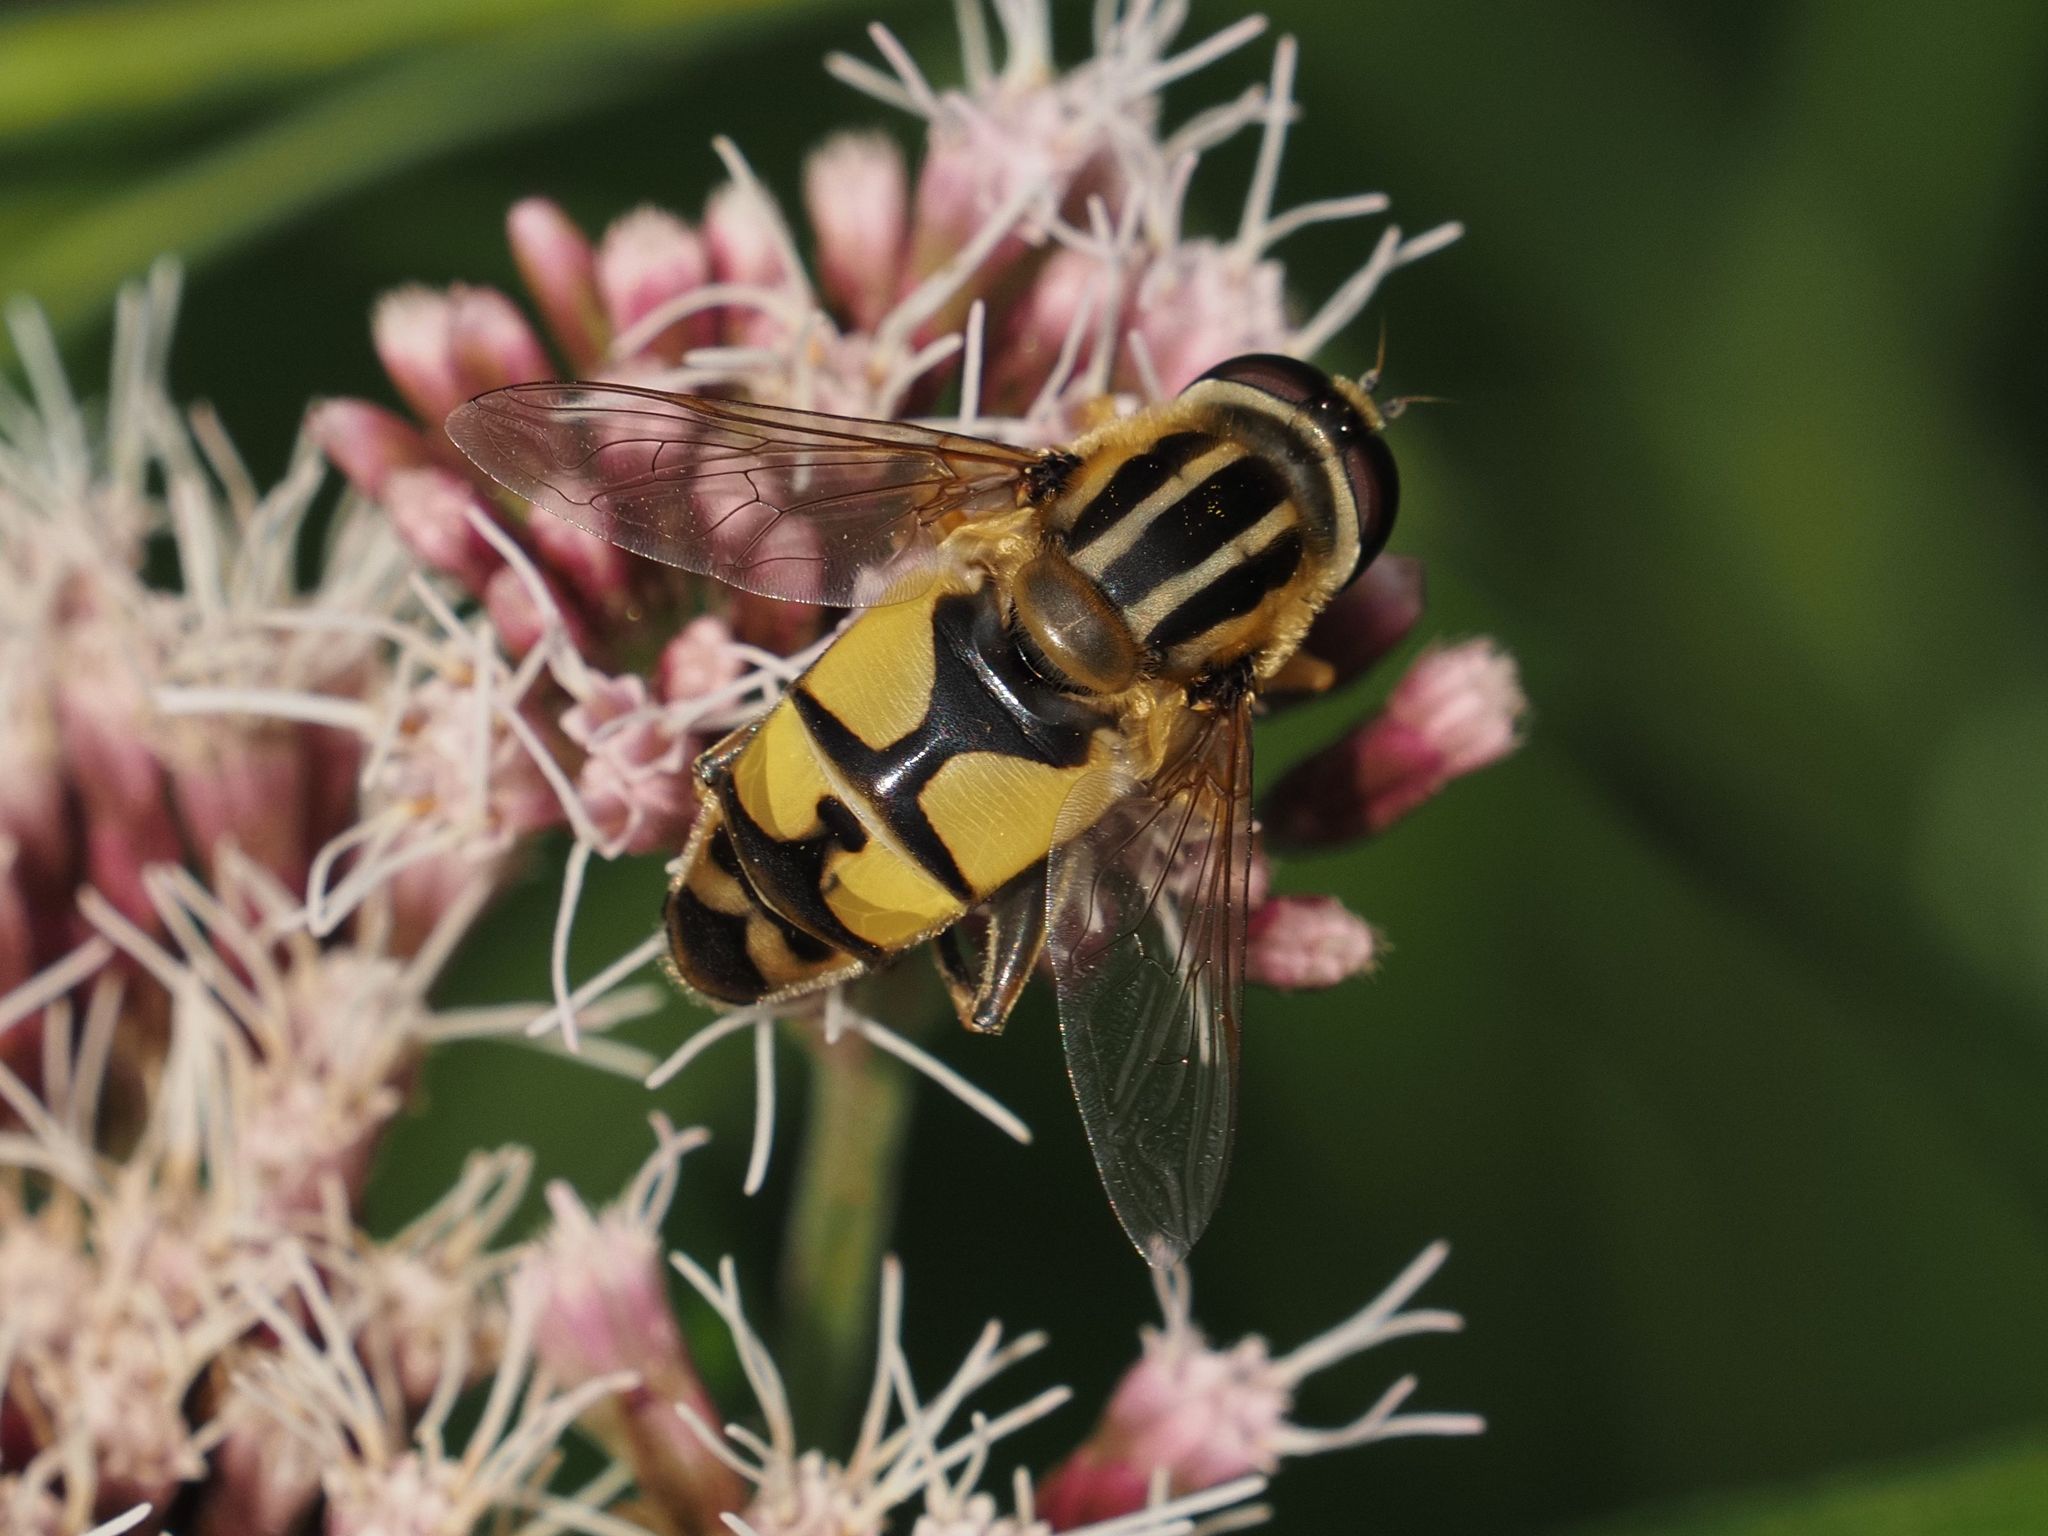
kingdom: Animalia
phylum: Arthropoda
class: Insecta
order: Diptera
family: Syrphidae
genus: Helophilus
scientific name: Helophilus trivittatus
